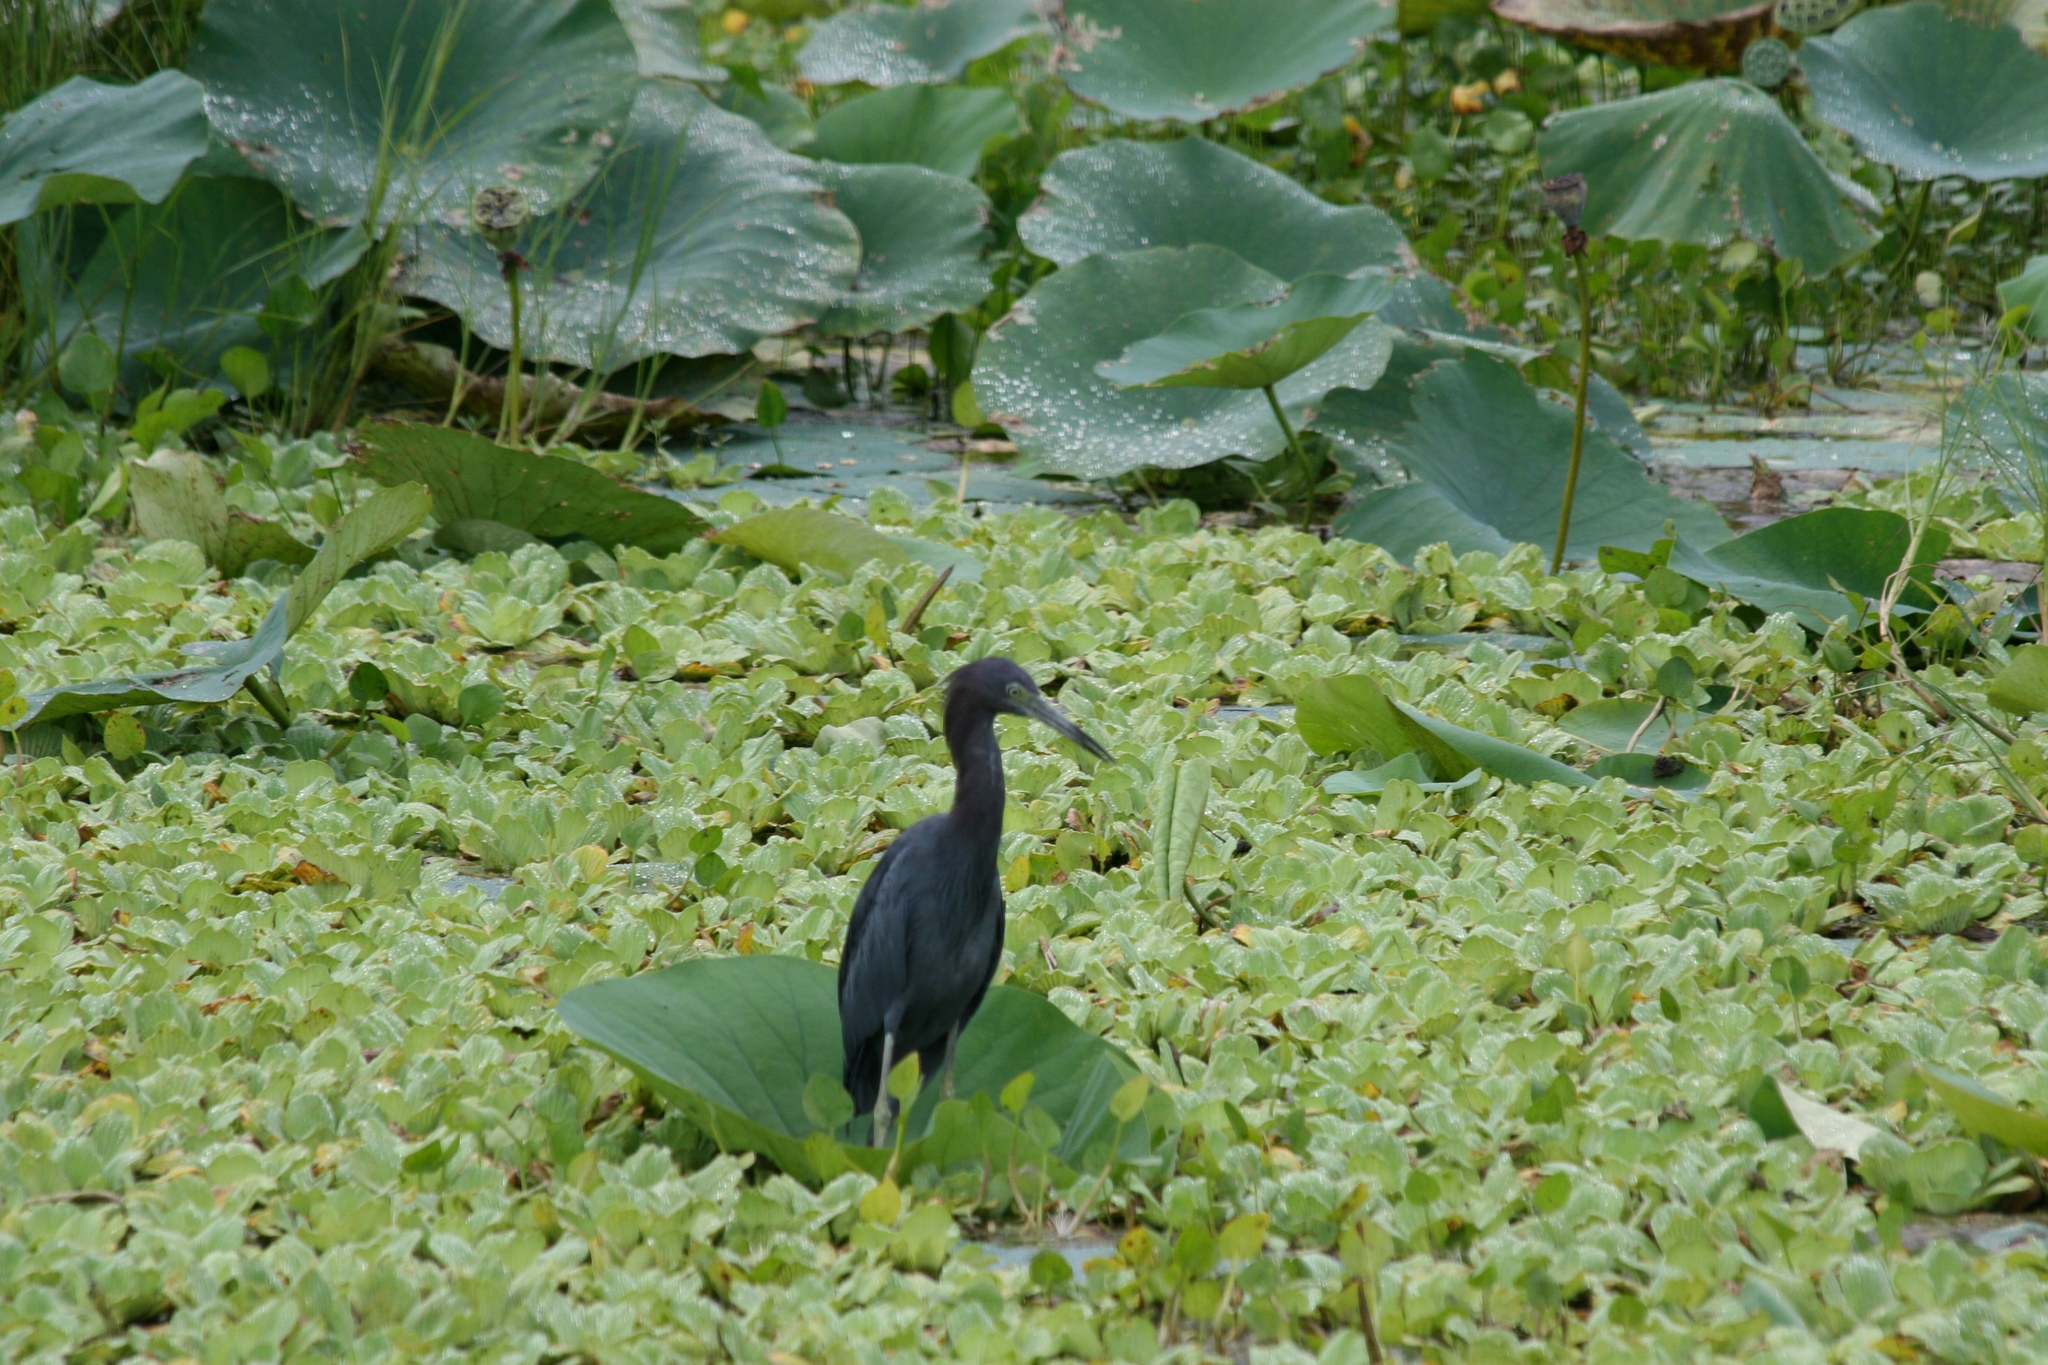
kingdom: Animalia
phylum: Chordata
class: Aves
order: Pelecaniformes
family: Ardeidae
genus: Egretta
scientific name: Egretta caerulea
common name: Little blue heron
